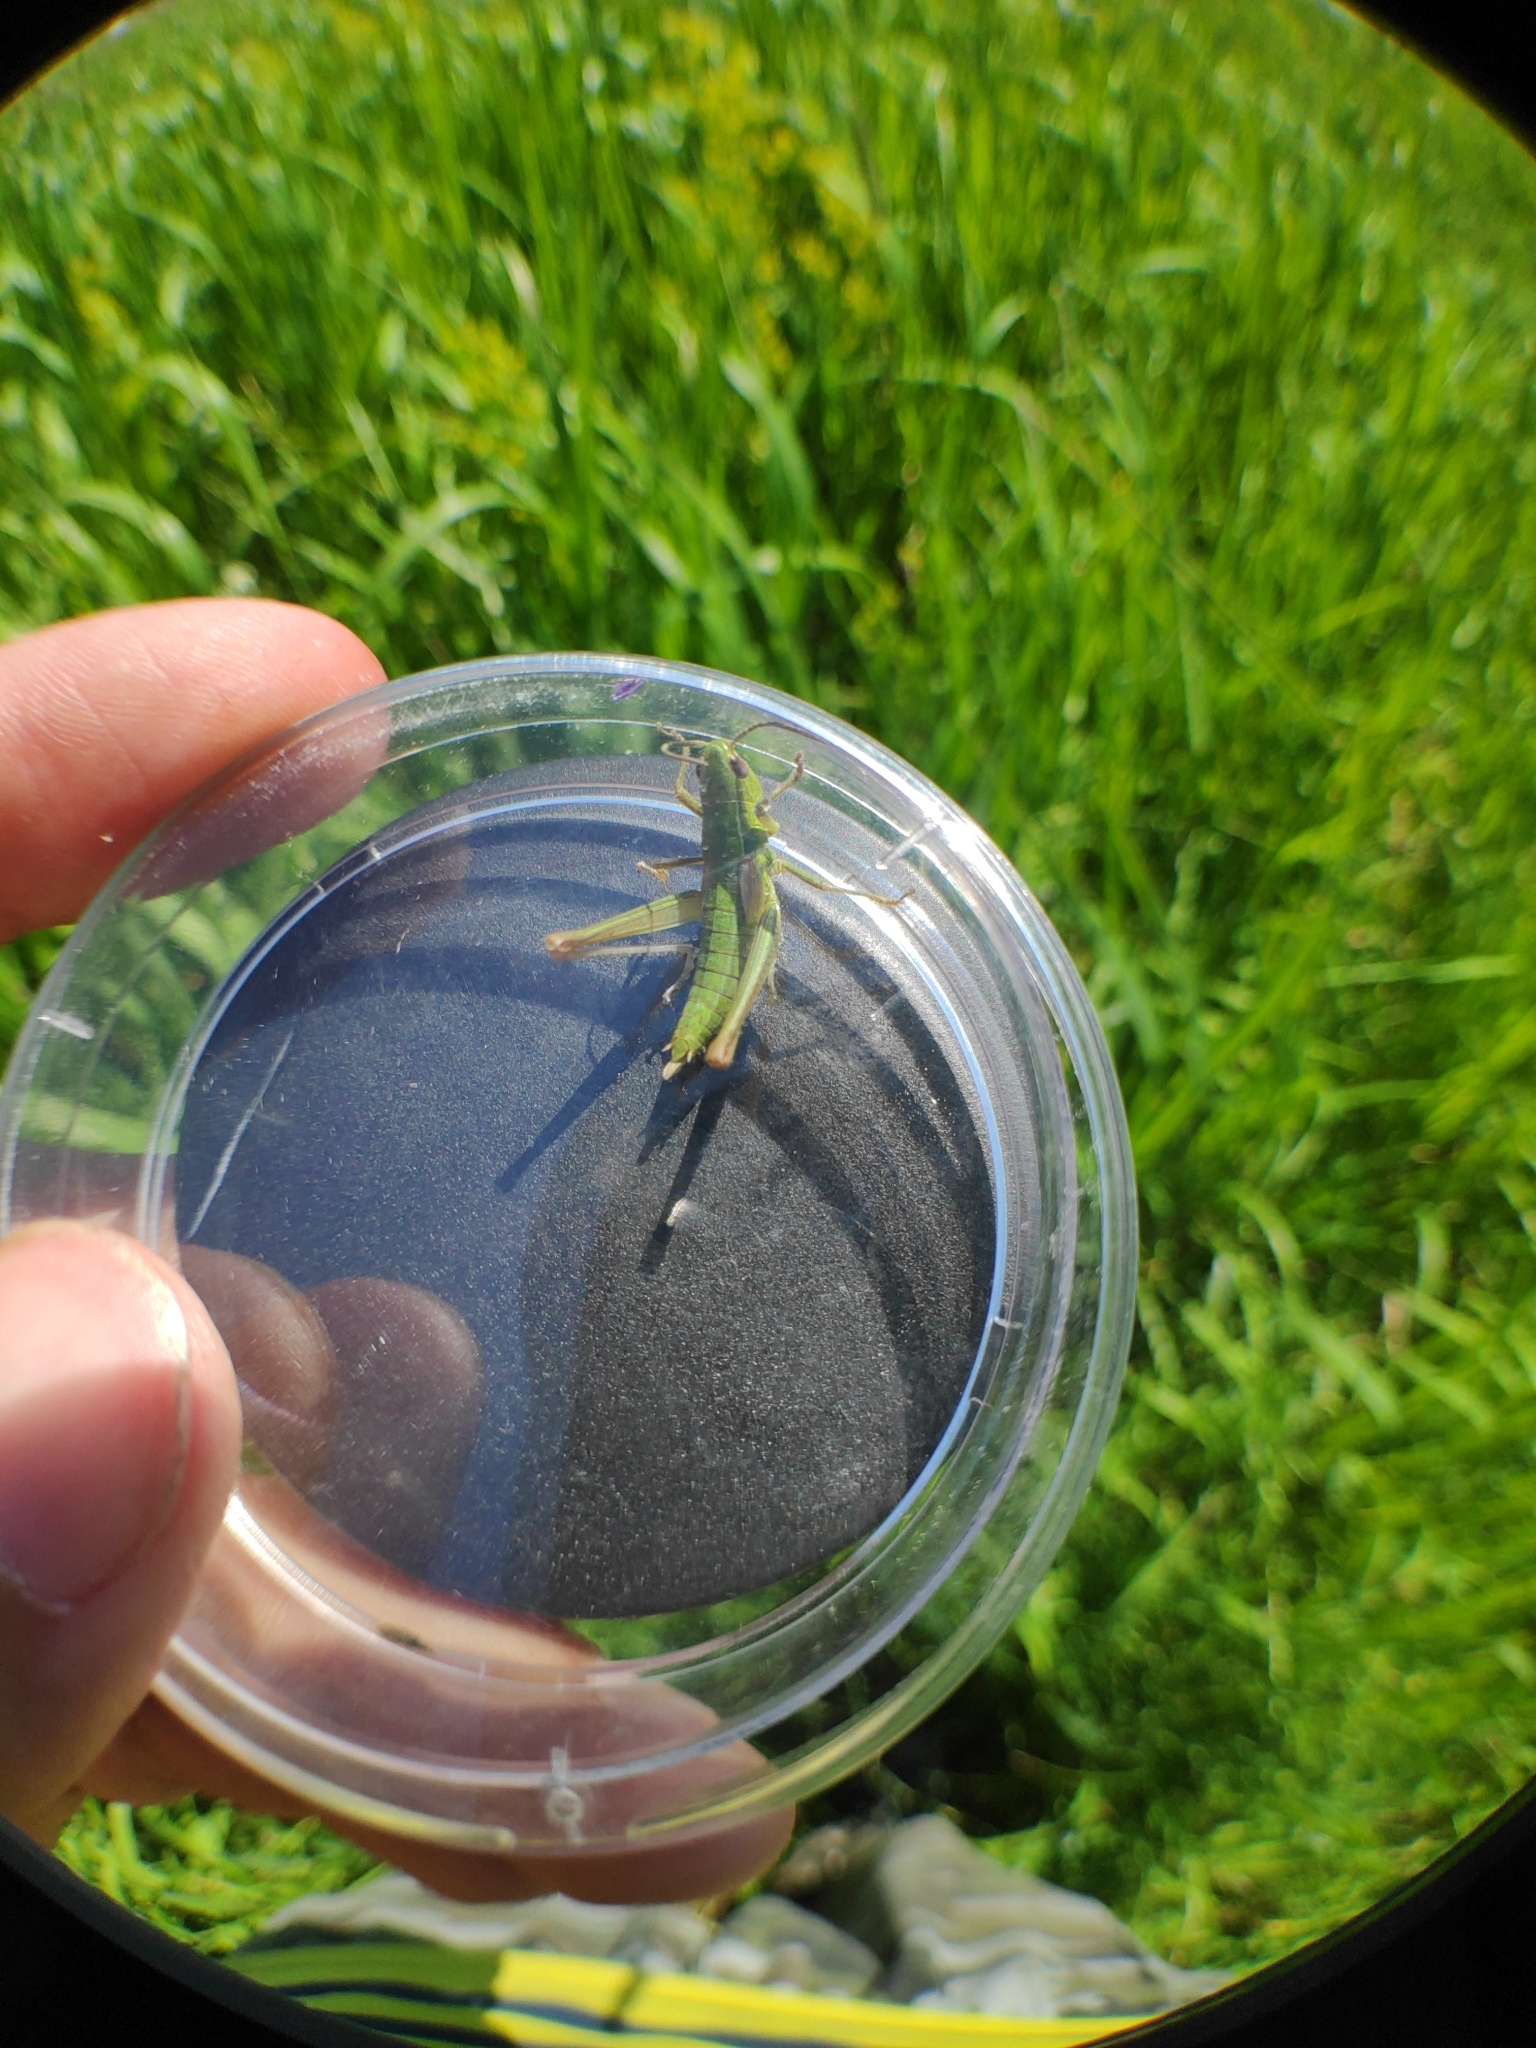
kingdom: Animalia
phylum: Arthropoda
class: Insecta
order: Orthoptera
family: Acrididae
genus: Euthystira
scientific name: Euthystira brachyptera
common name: Small gold grasshopper
